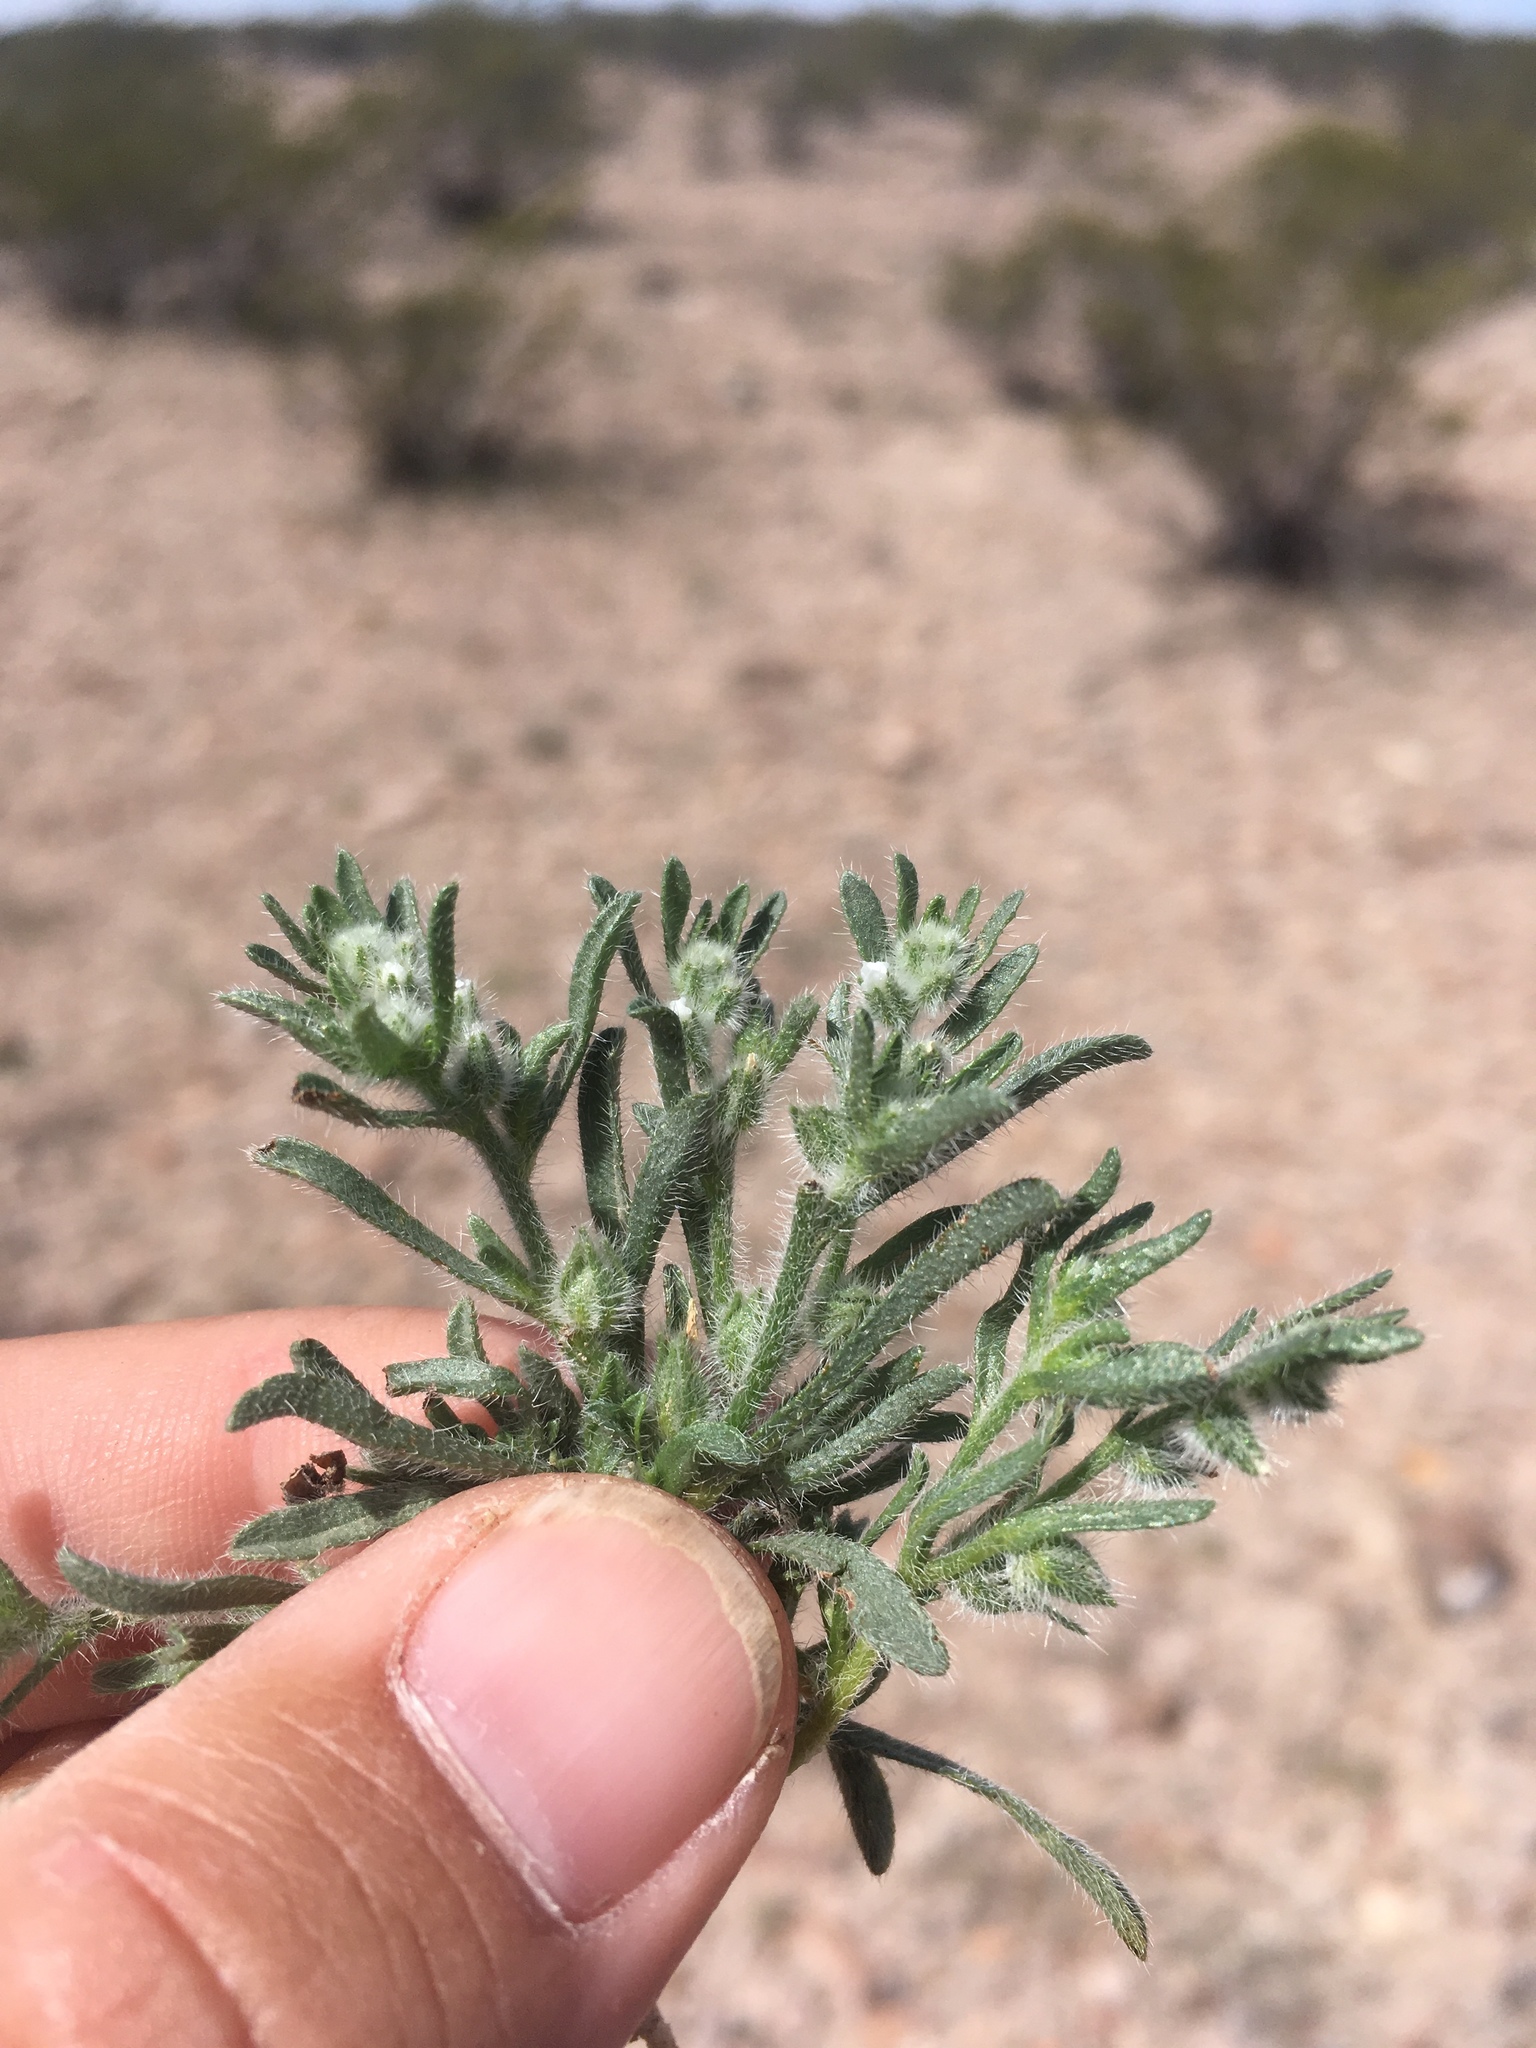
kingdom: Plantae
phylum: Tracheophyta
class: Magnoliopsida
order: Boraginales
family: Boraginaceae
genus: Cryptantha
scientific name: Cryptantha minima
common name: Little cat's-eye
